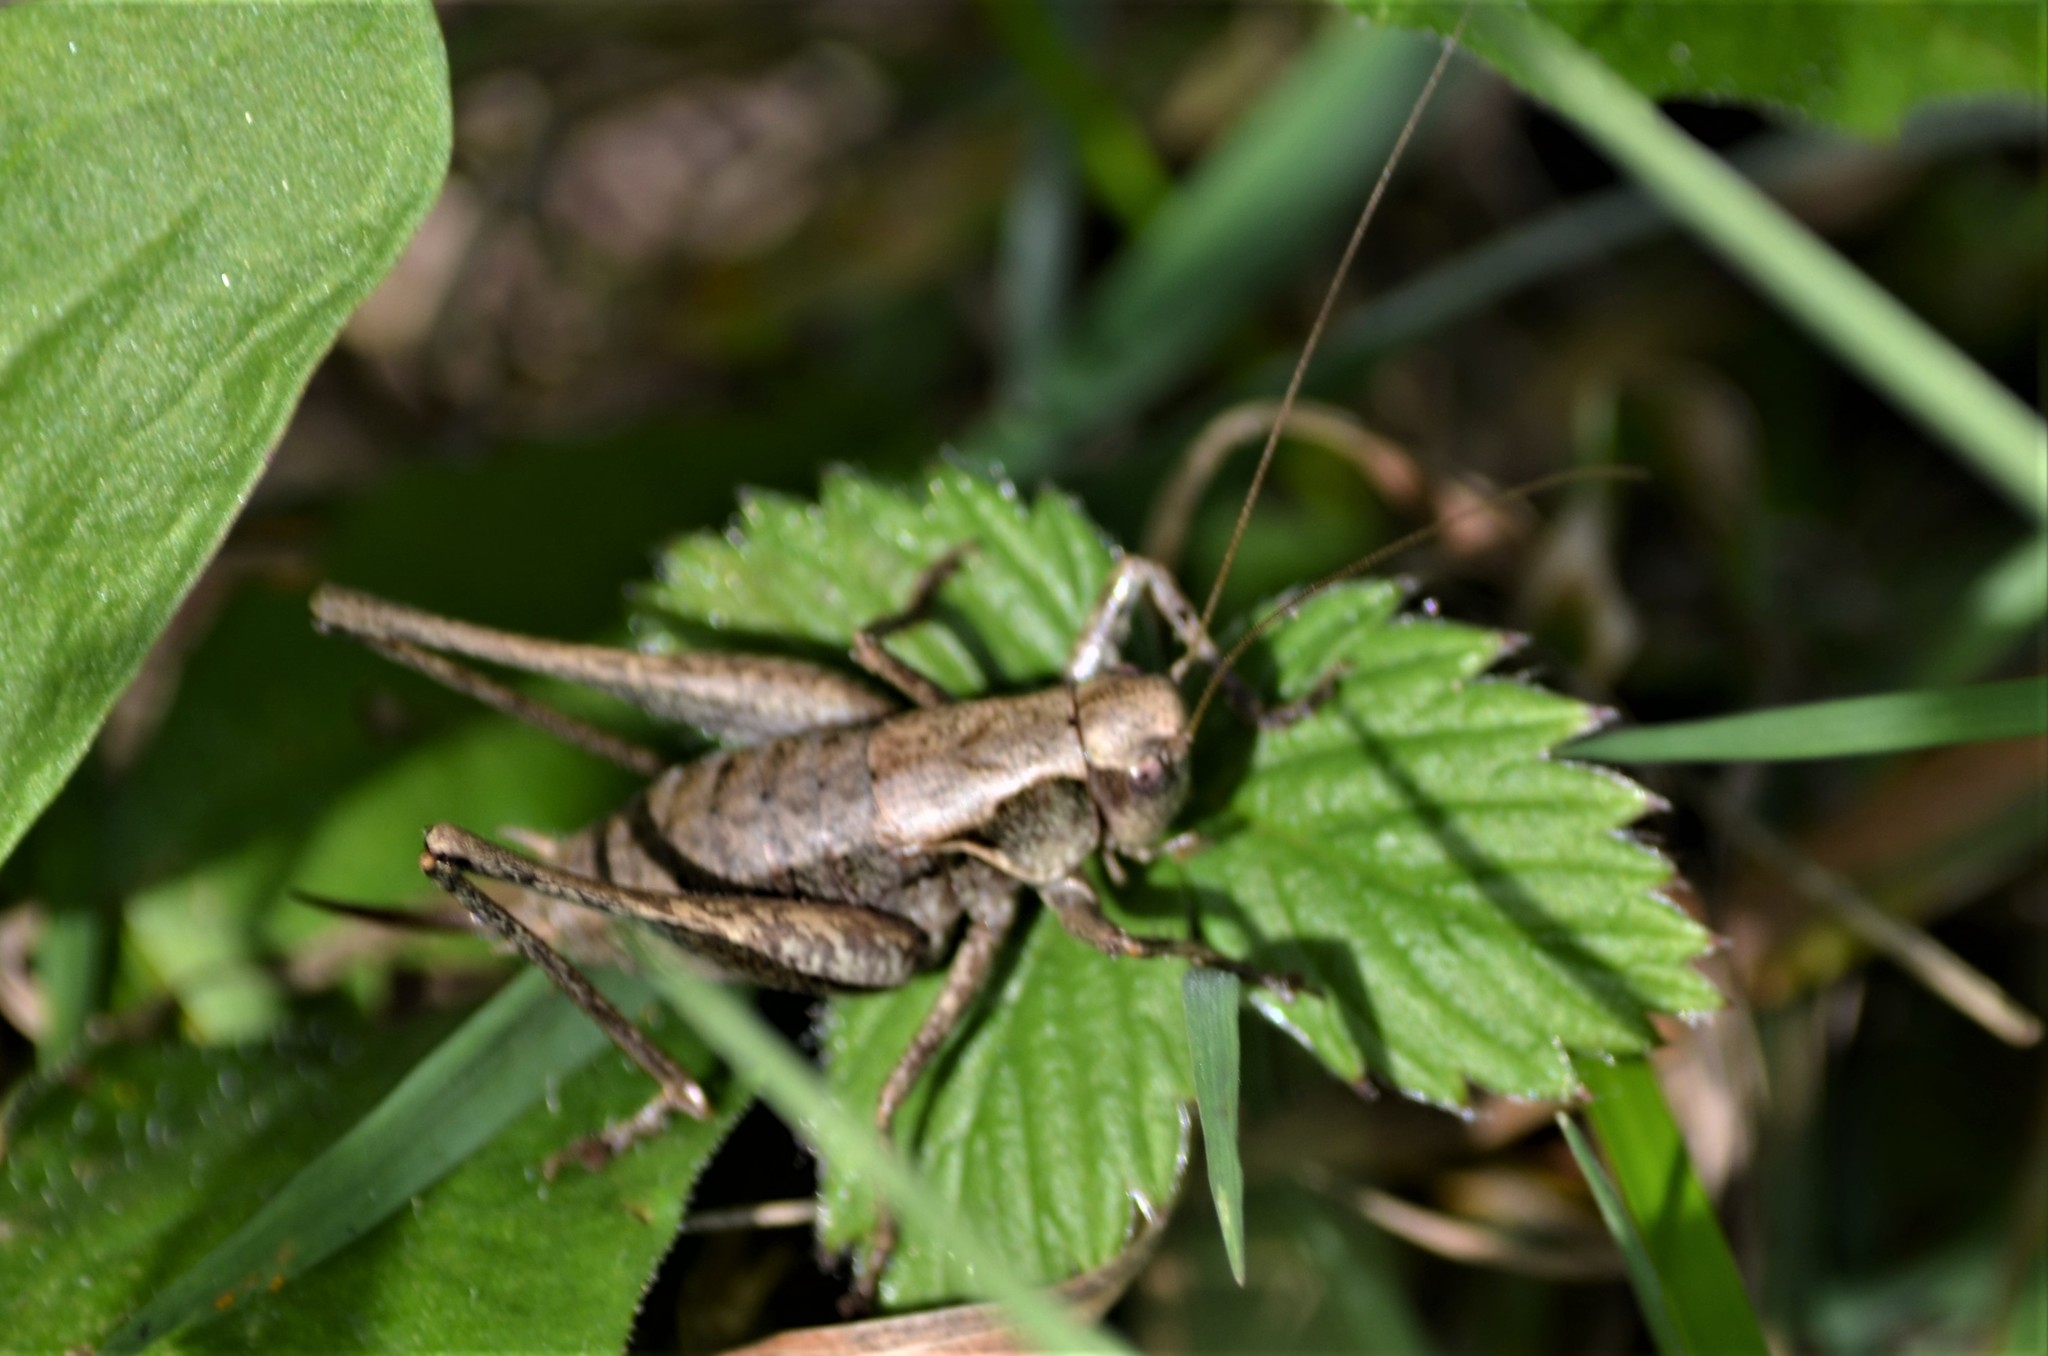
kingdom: Animalia
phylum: Arthropoda
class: Insecta
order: Orthoptera
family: Tettigoniidae
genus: Pholidoptera
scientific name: Pholidoptera griseoaptera
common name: Dark bush-cricket
